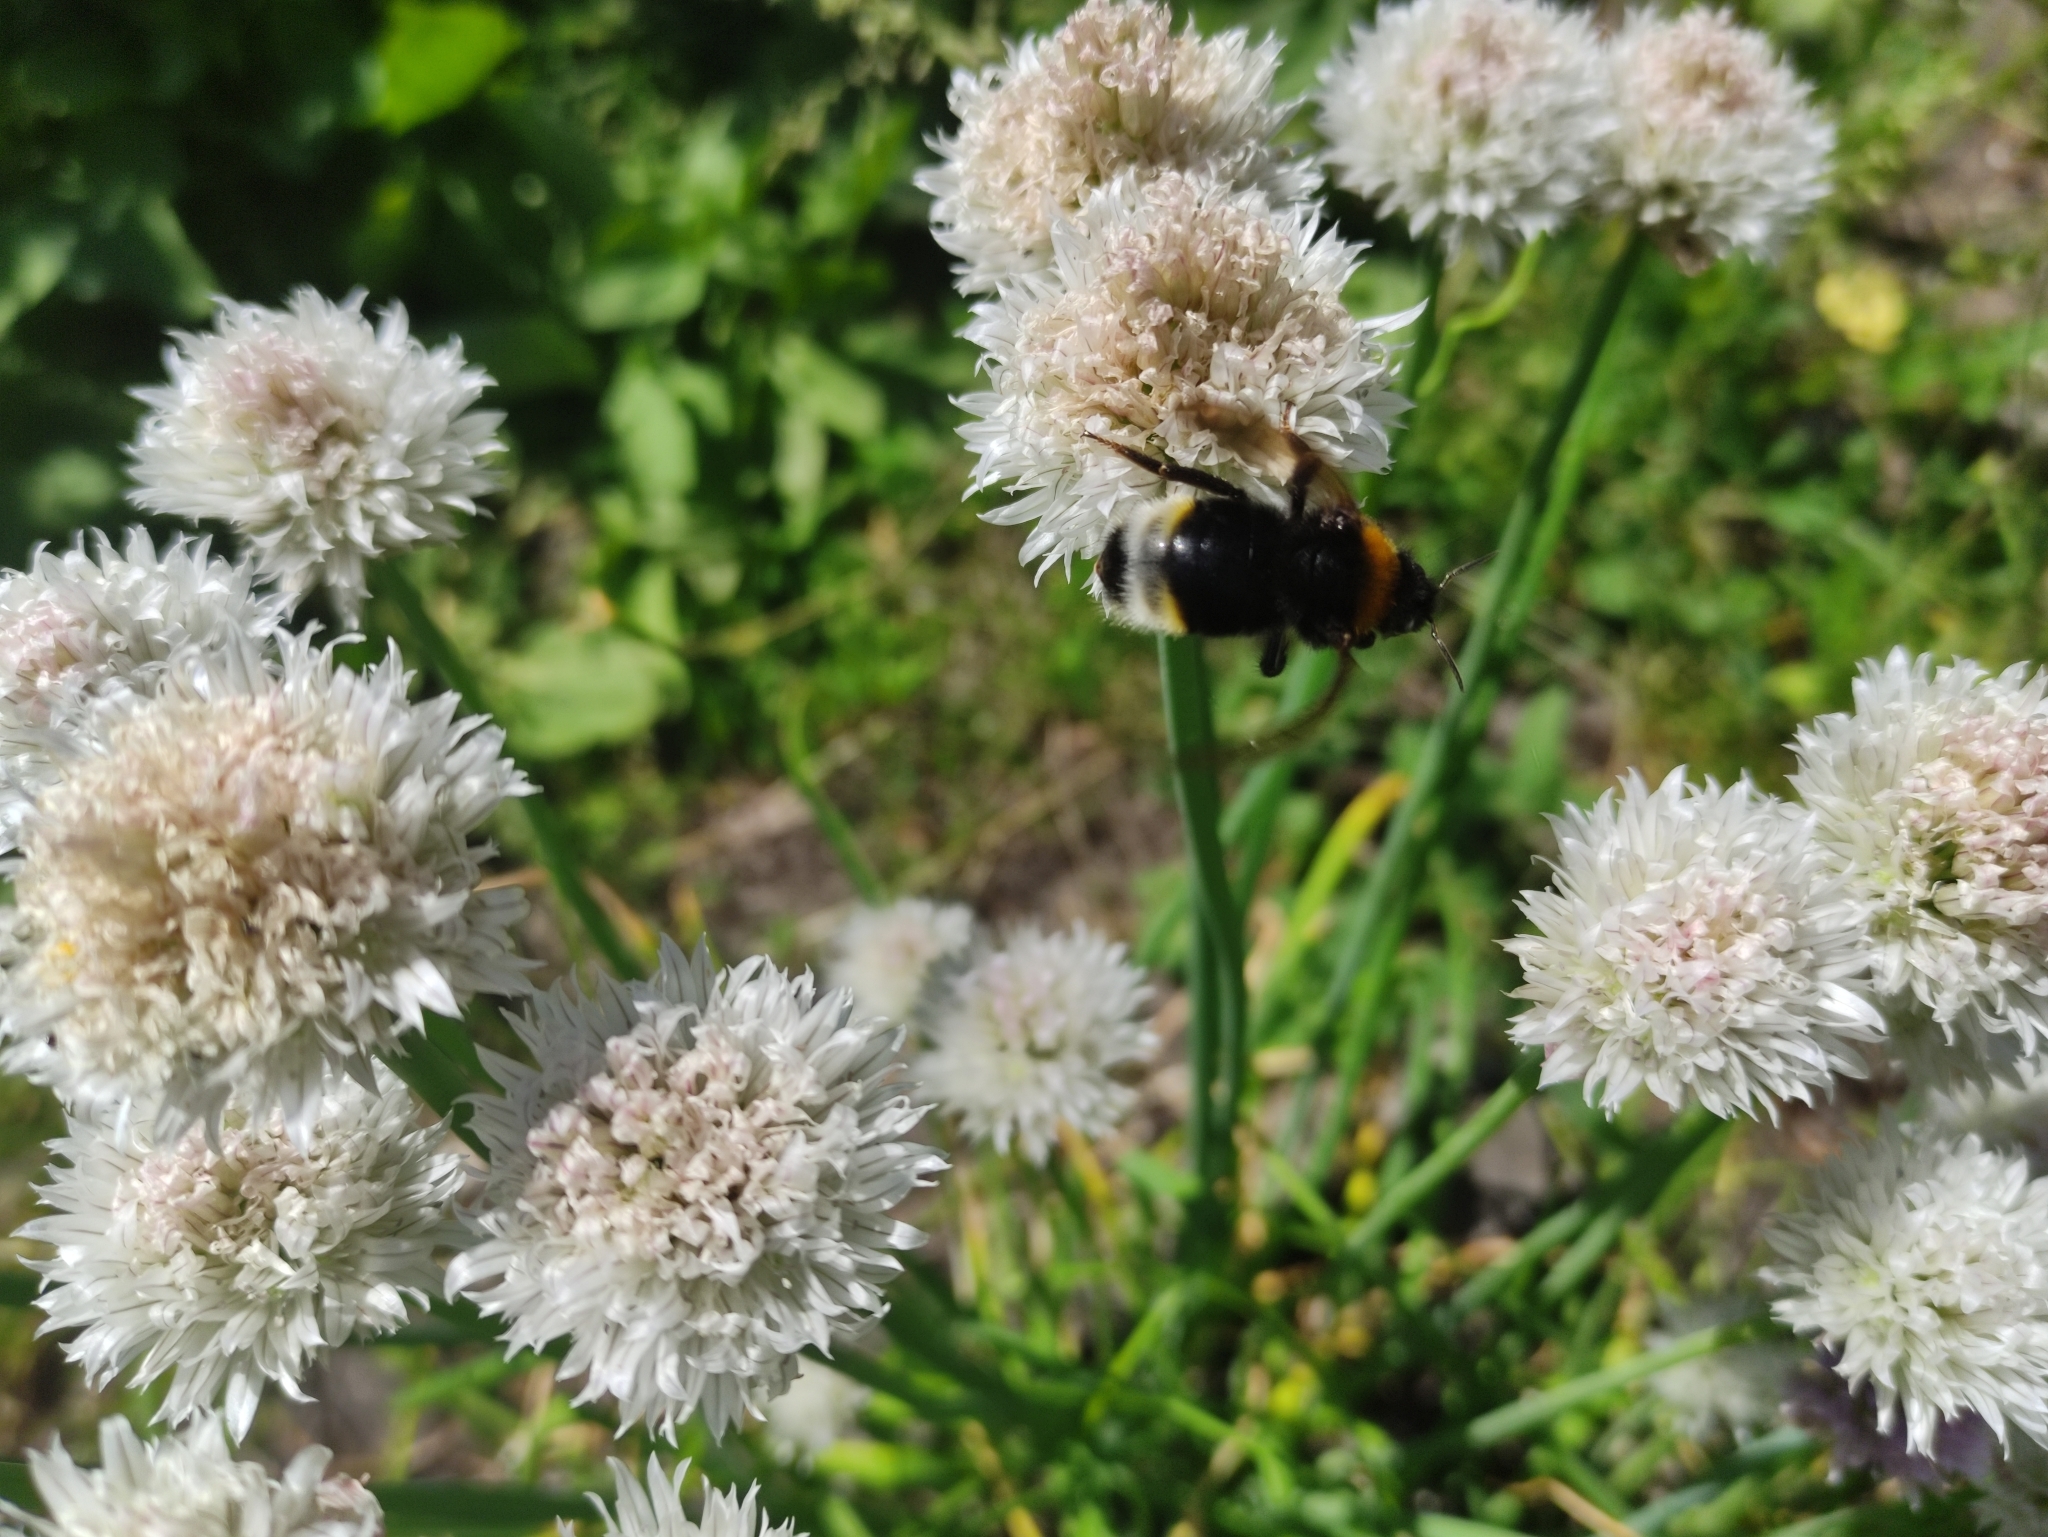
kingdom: Animalia
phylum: Arthropoda
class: Insecta
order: Hymenoptera
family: Apidae
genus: Bombus
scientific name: Bombus vestalis
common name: Vestal cuckoo bee
